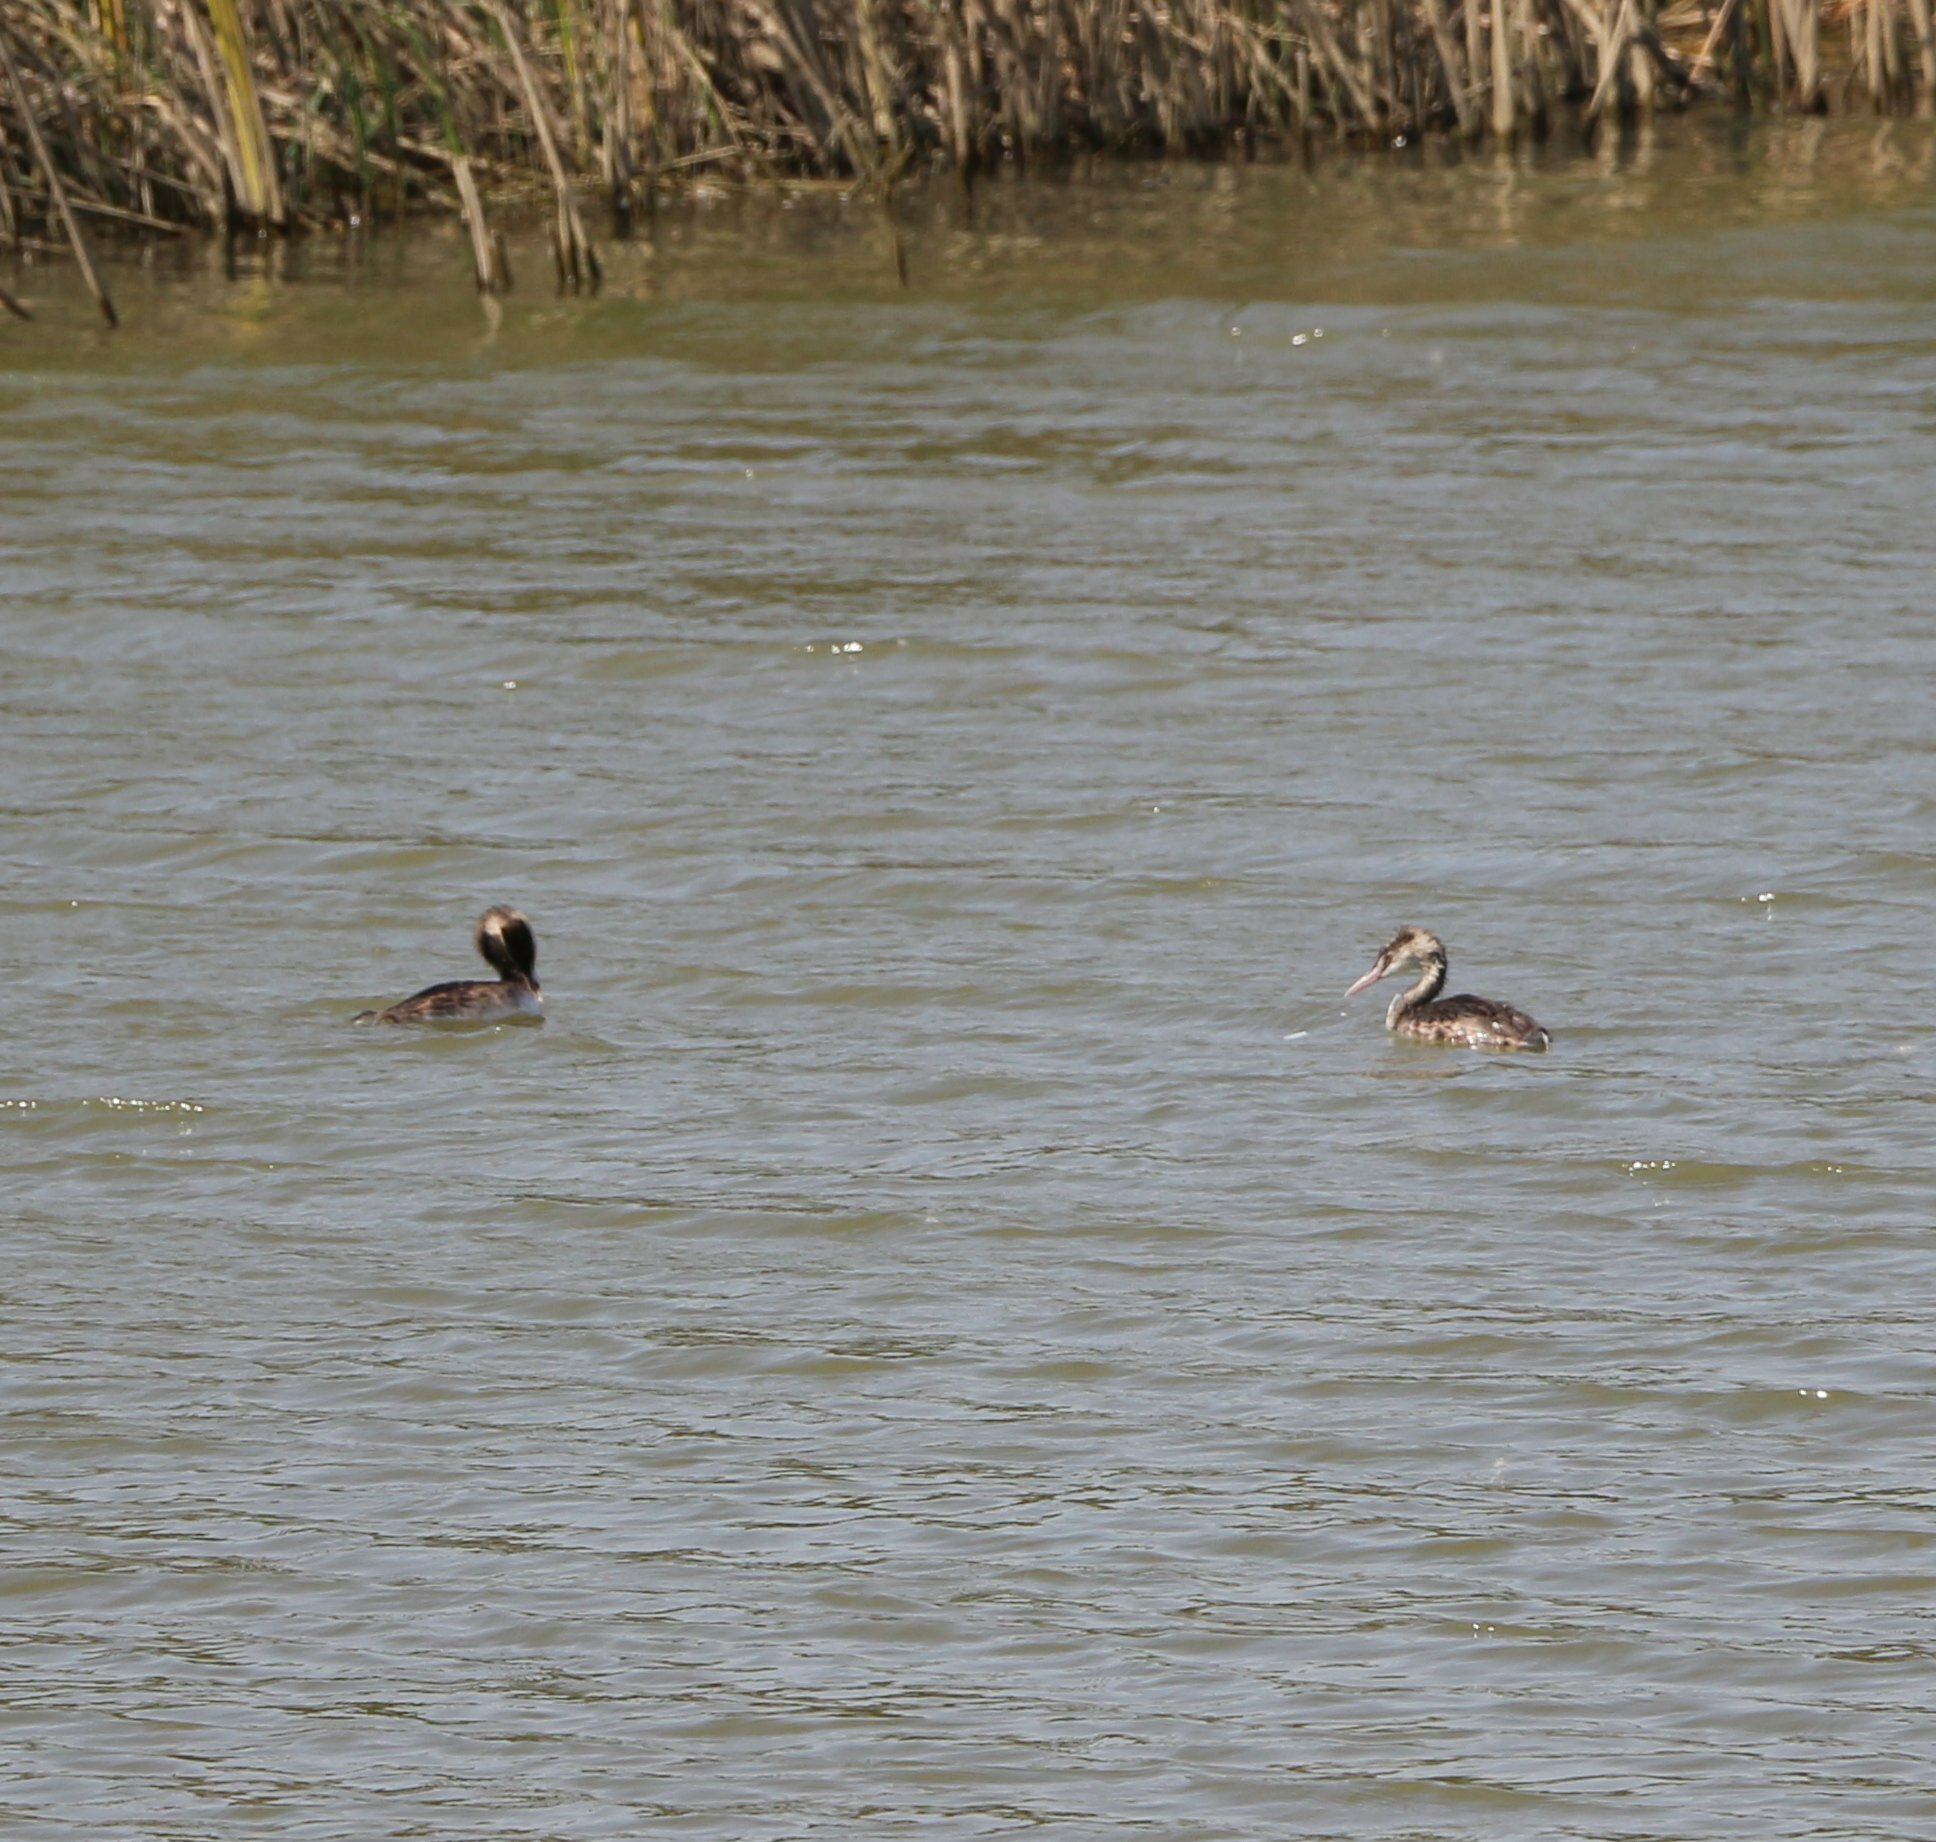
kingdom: Animalia
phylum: Chordata
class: Aves
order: Podicipediformes
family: Podicipedidae
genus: Podiceps
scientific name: Podiceps cristatus
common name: Great crested grebe
